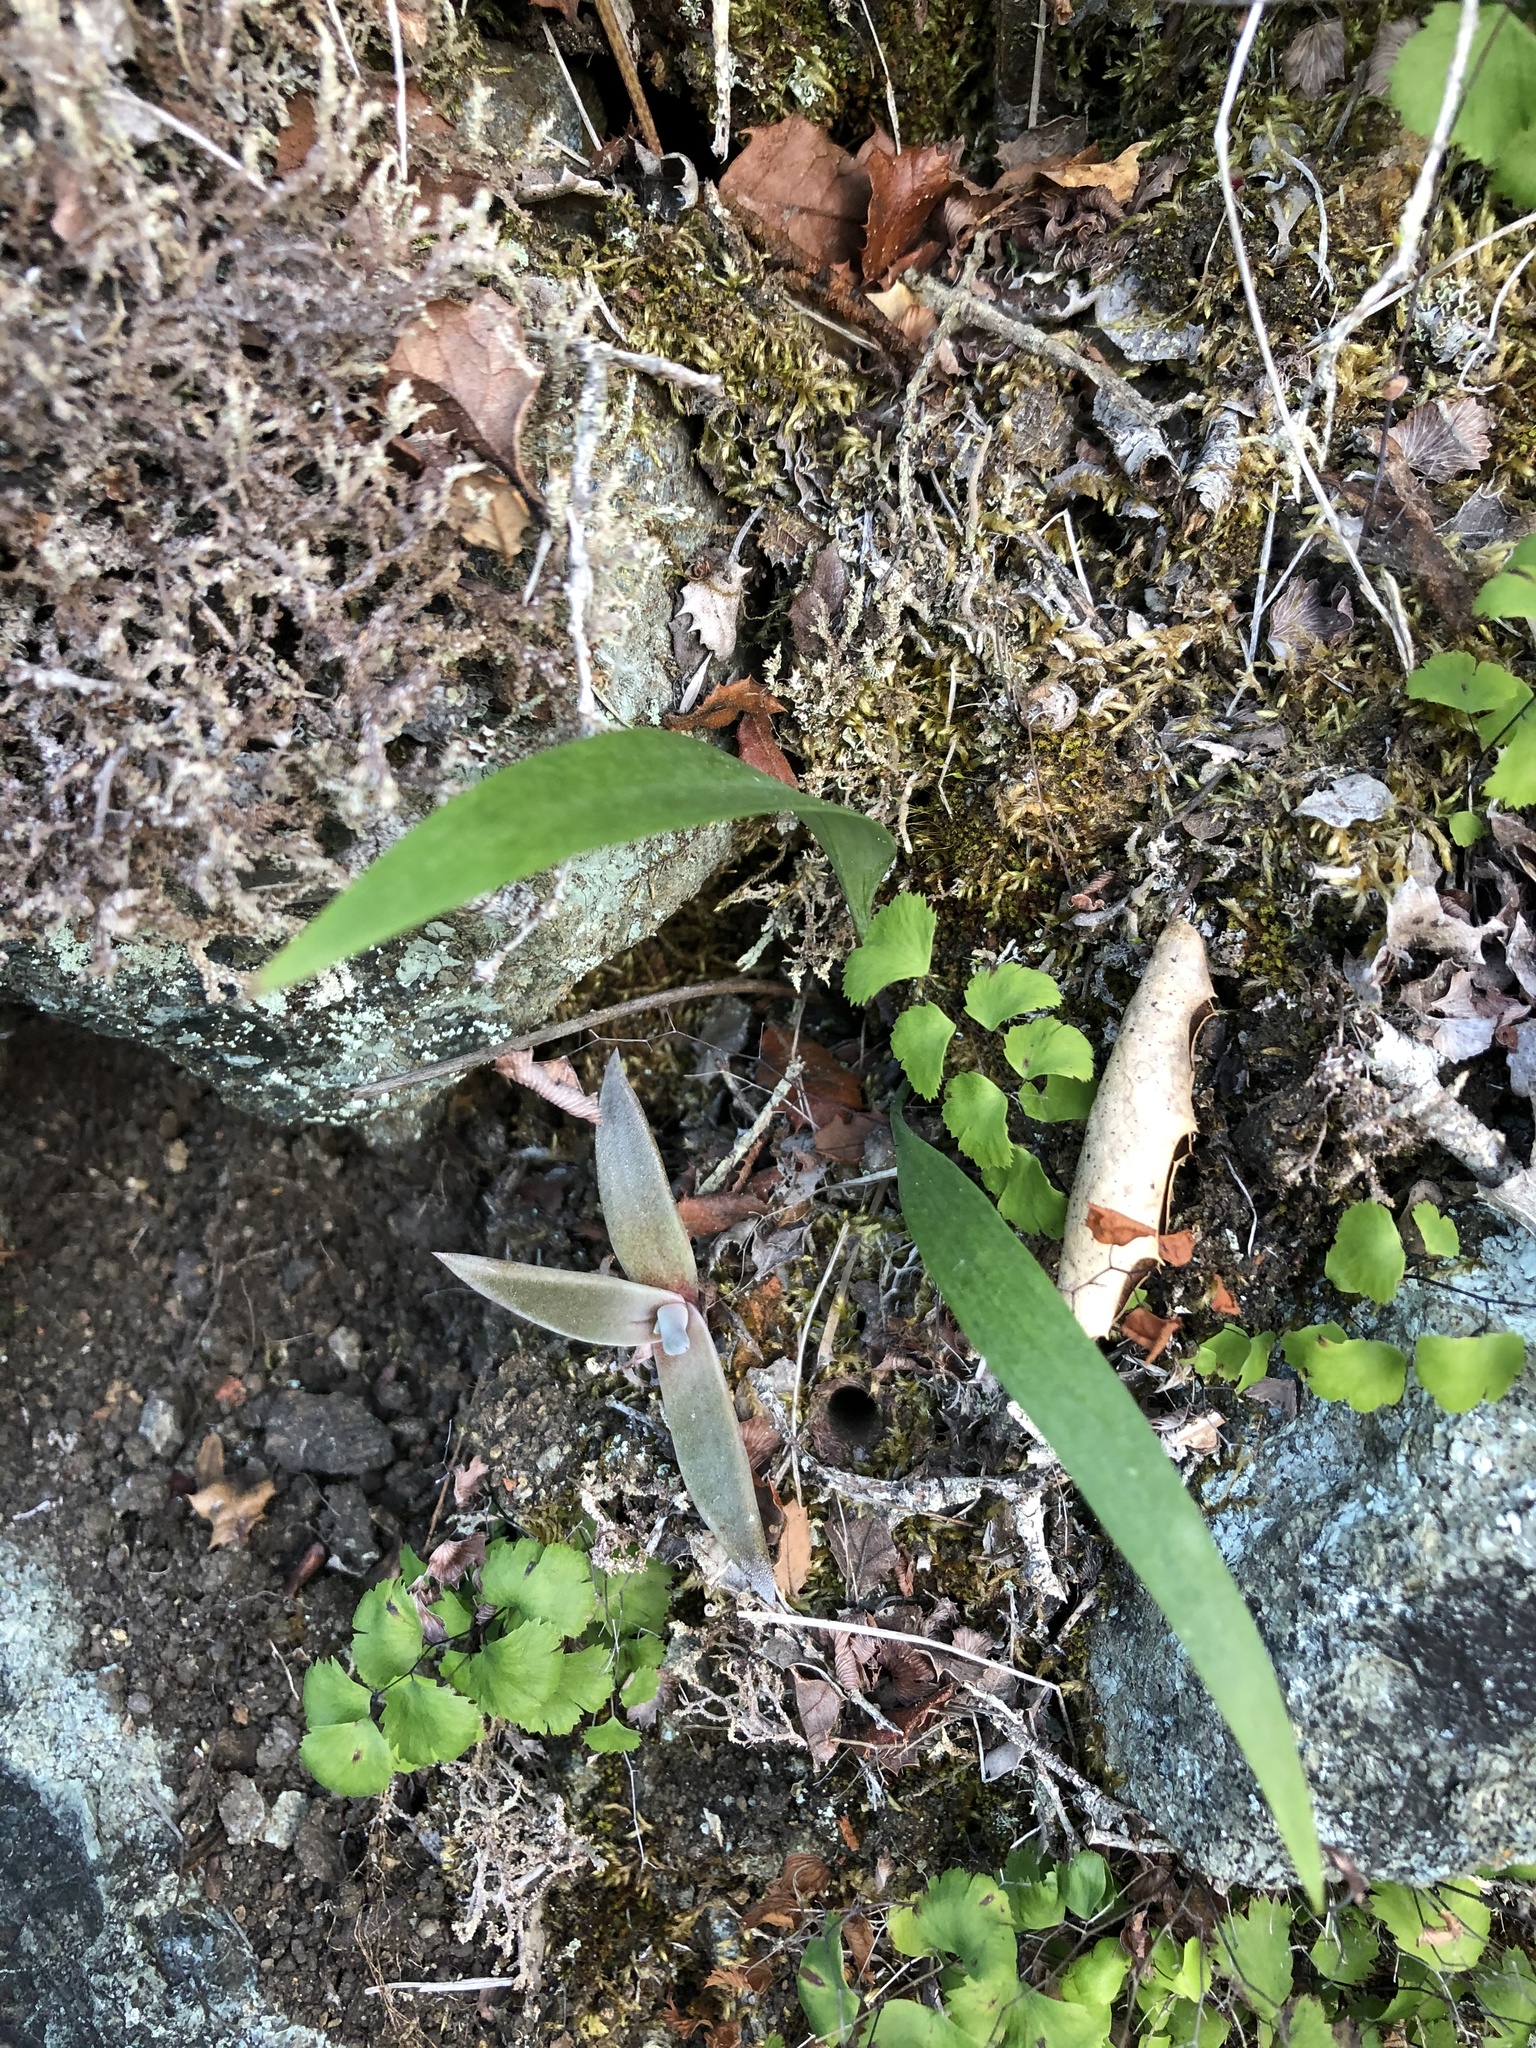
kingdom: Plantae
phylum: Tracheophyta
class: Liliopsida
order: Liliales
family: Liliaceae
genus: Fritillaria
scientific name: Fritillaria ojaiensis
